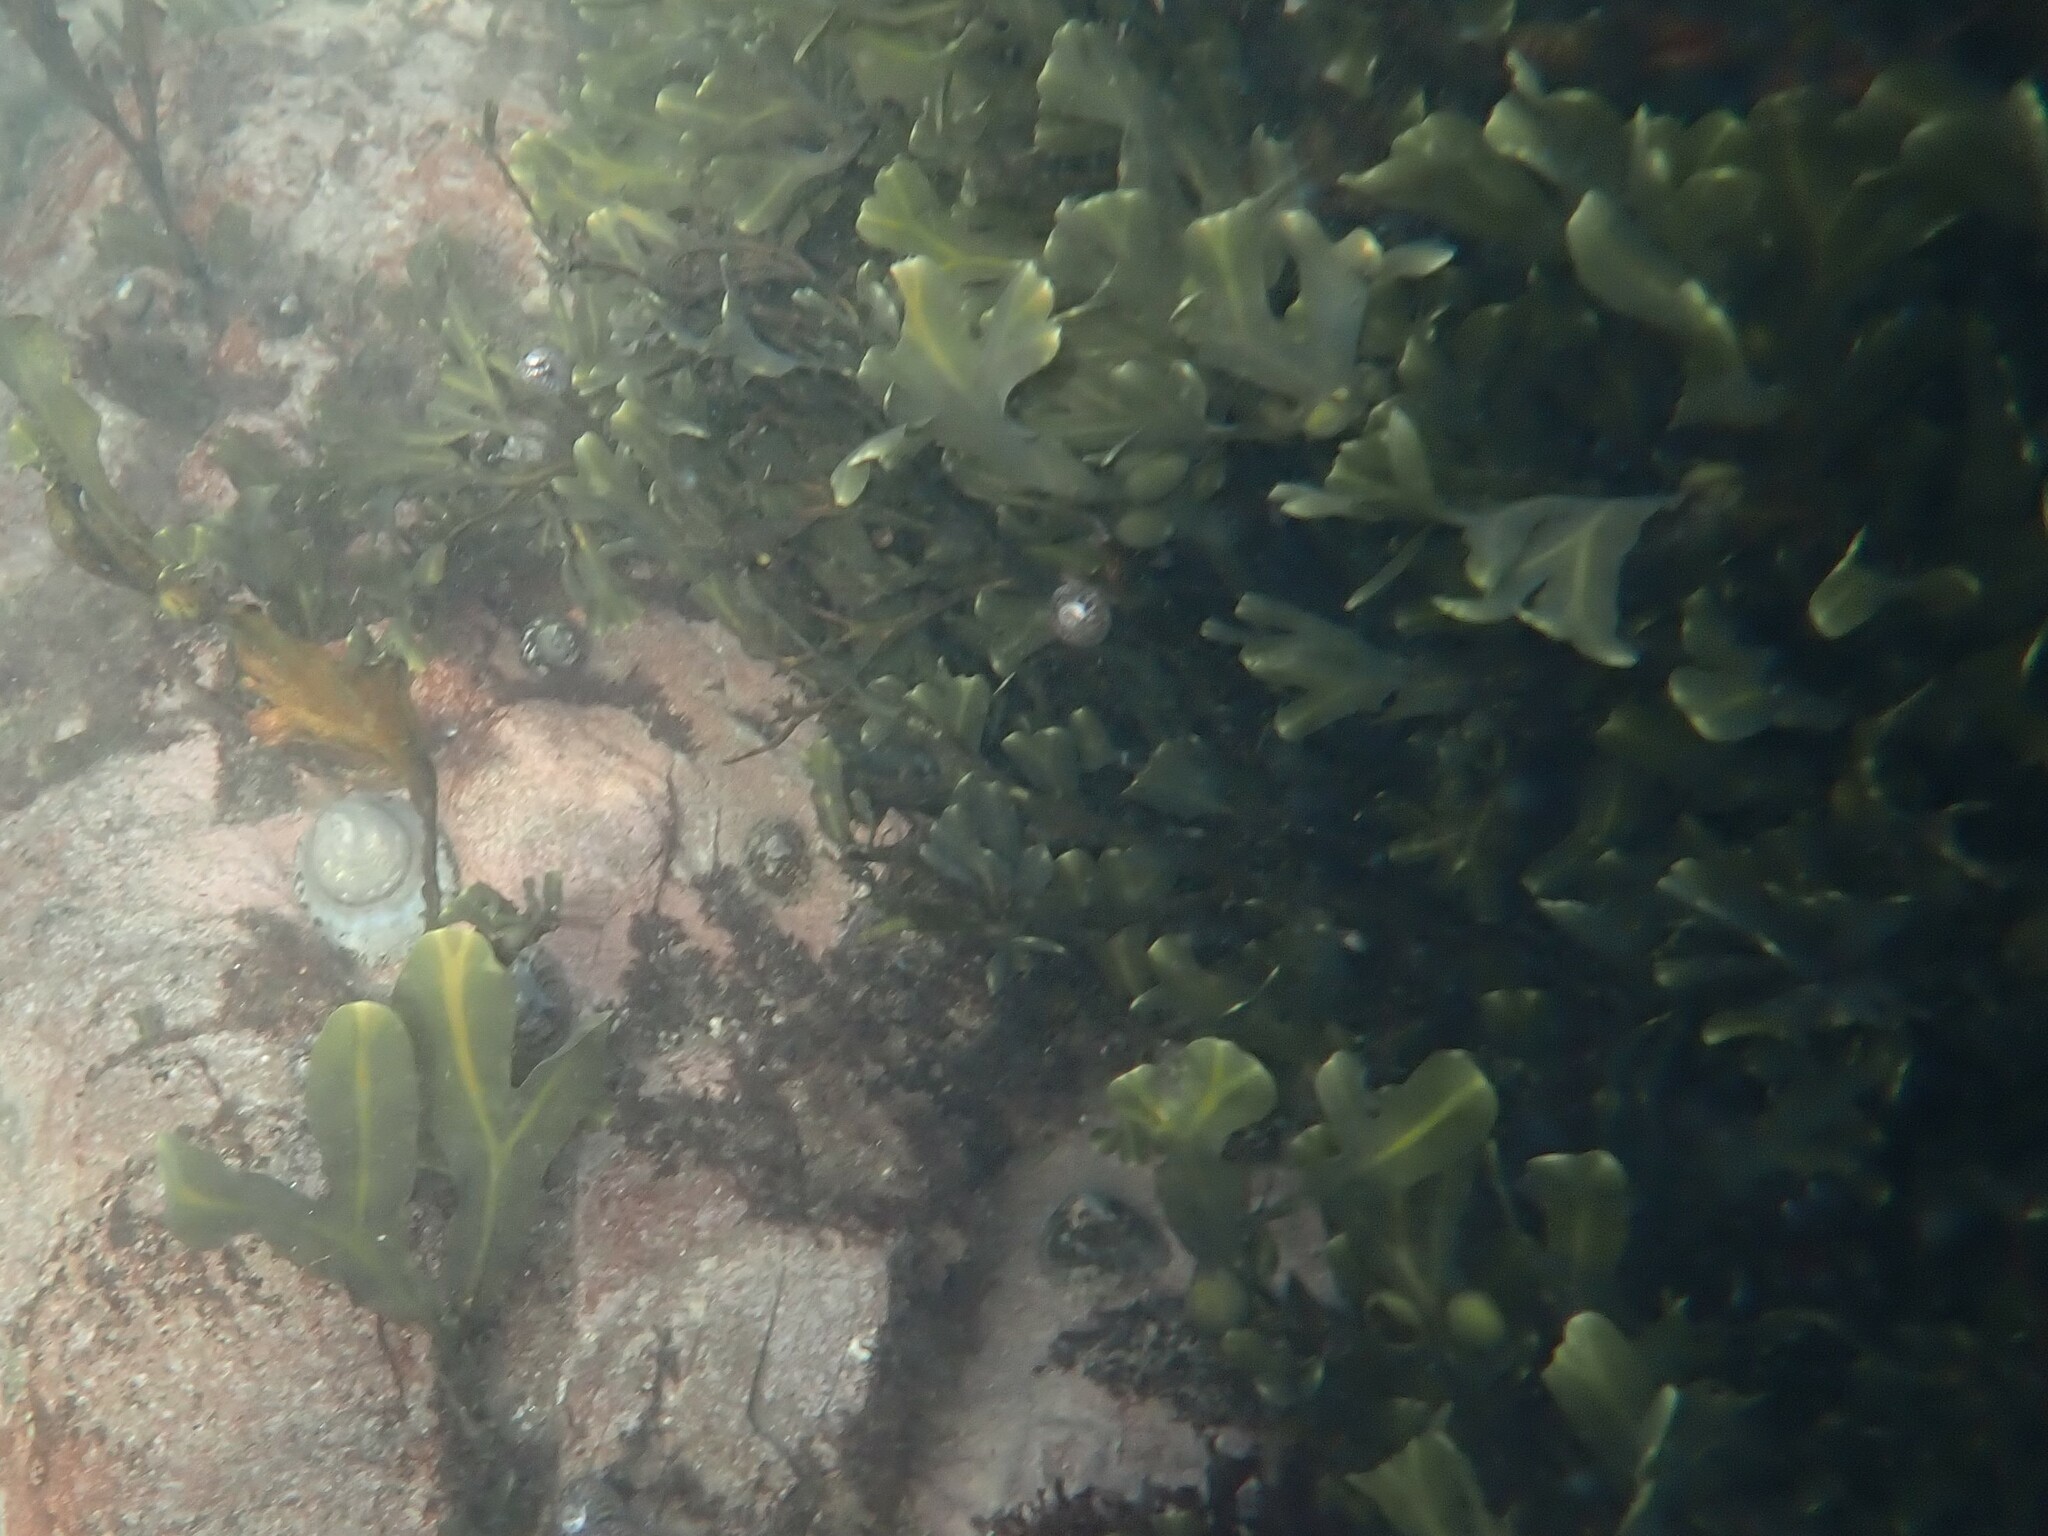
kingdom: Chromista
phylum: Ochrophyta
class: Phaeophyceae
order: Fucales
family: Fucaceae
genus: Fucus
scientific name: Fucus vesiculosus
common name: Bladder wrack
